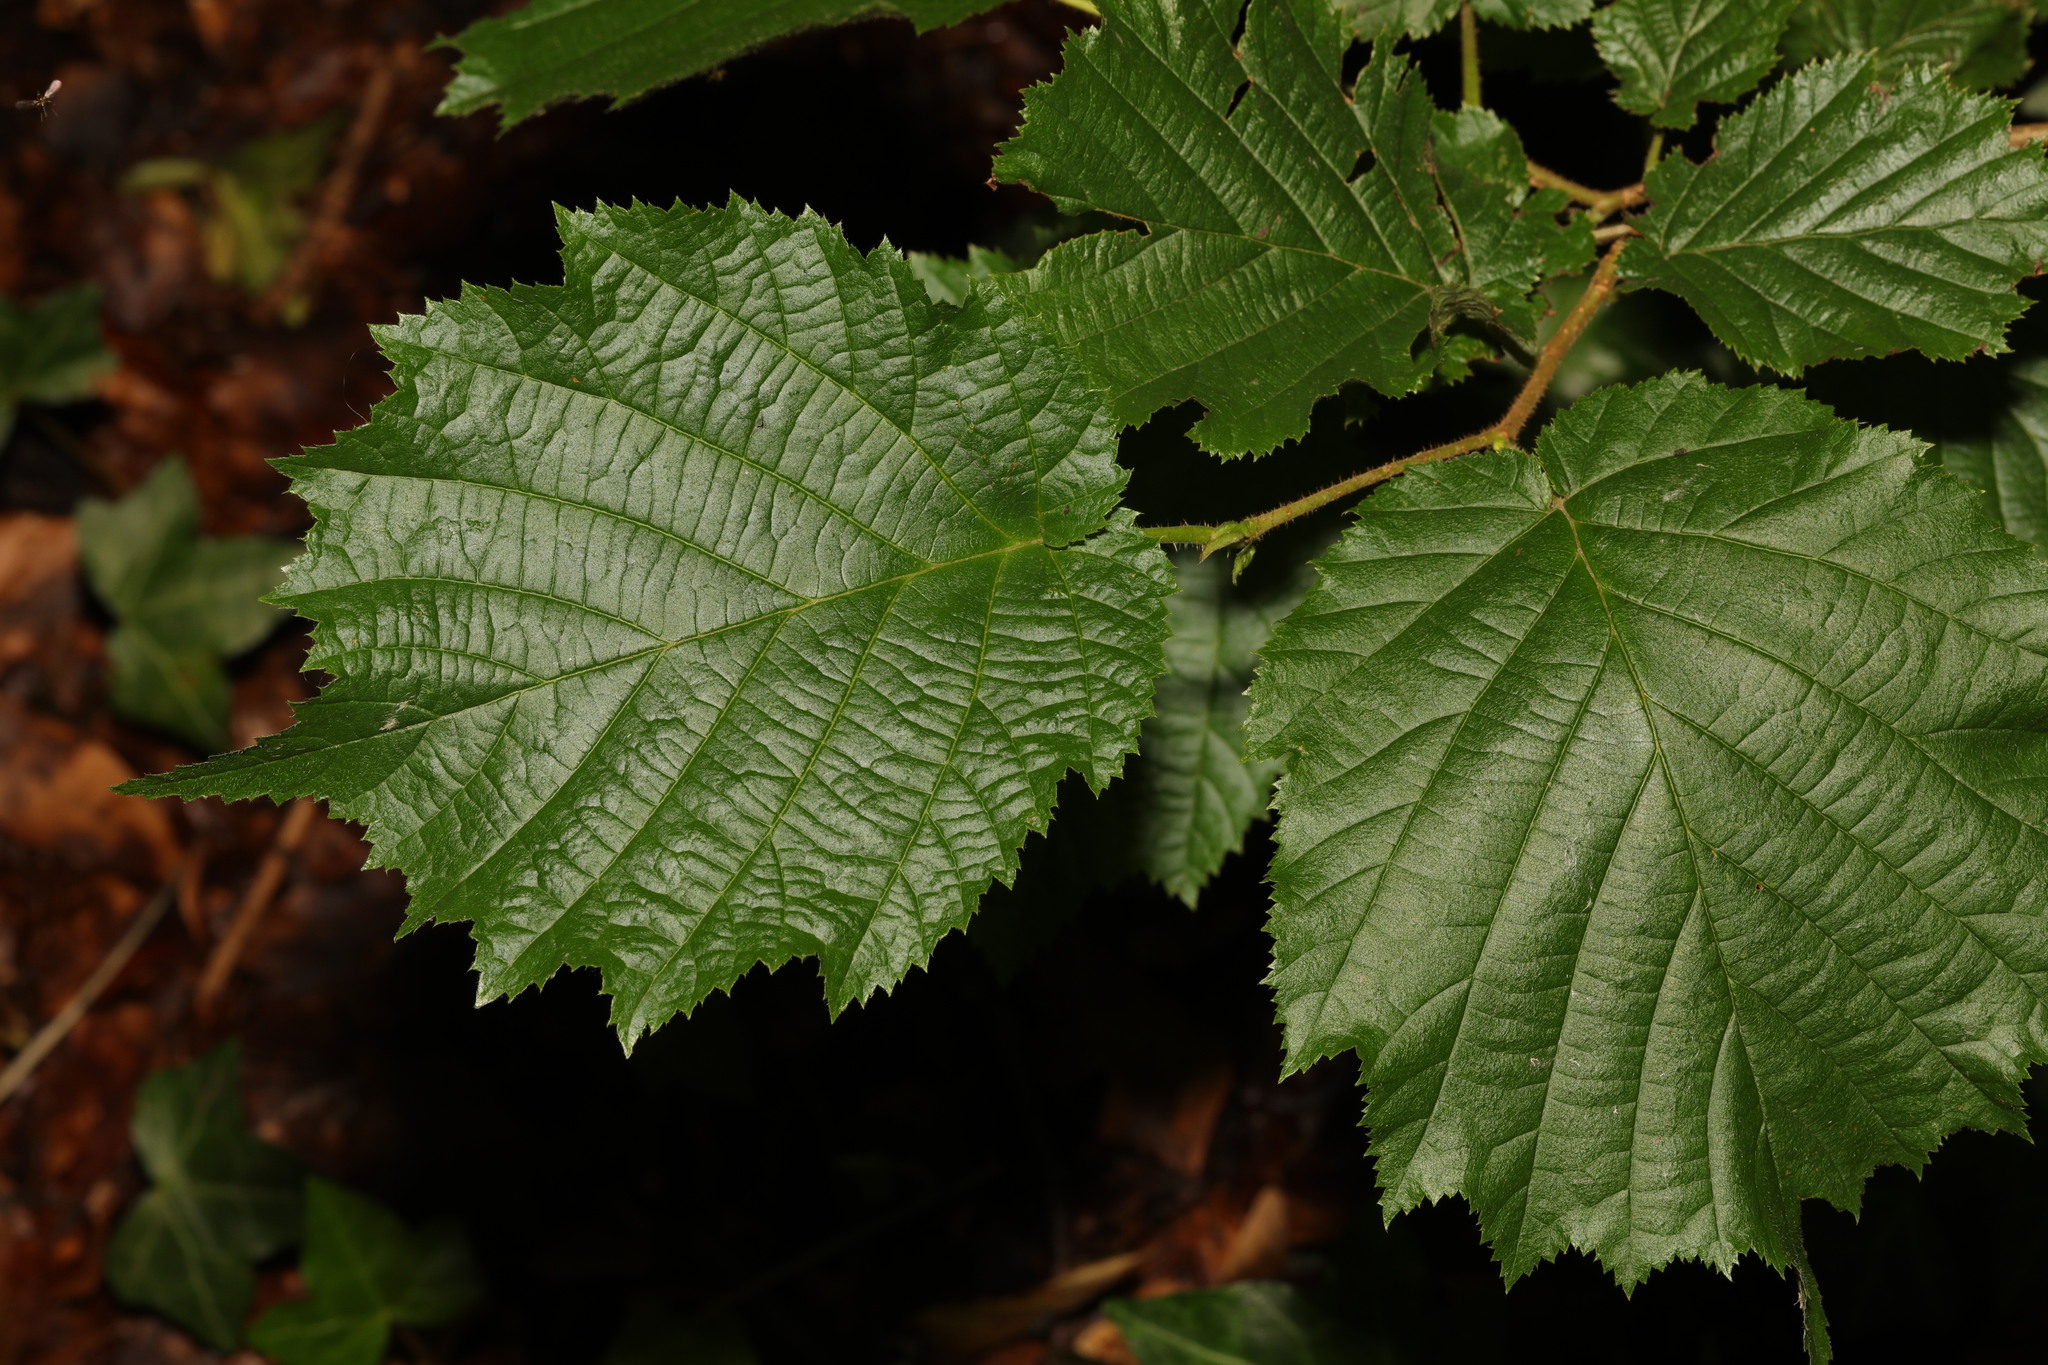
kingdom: Plantae
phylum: Tracheophyta
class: Magnoliopsida
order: Fagales
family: Betulaceae
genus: Corylus
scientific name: Corylus avellana
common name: European hazel
